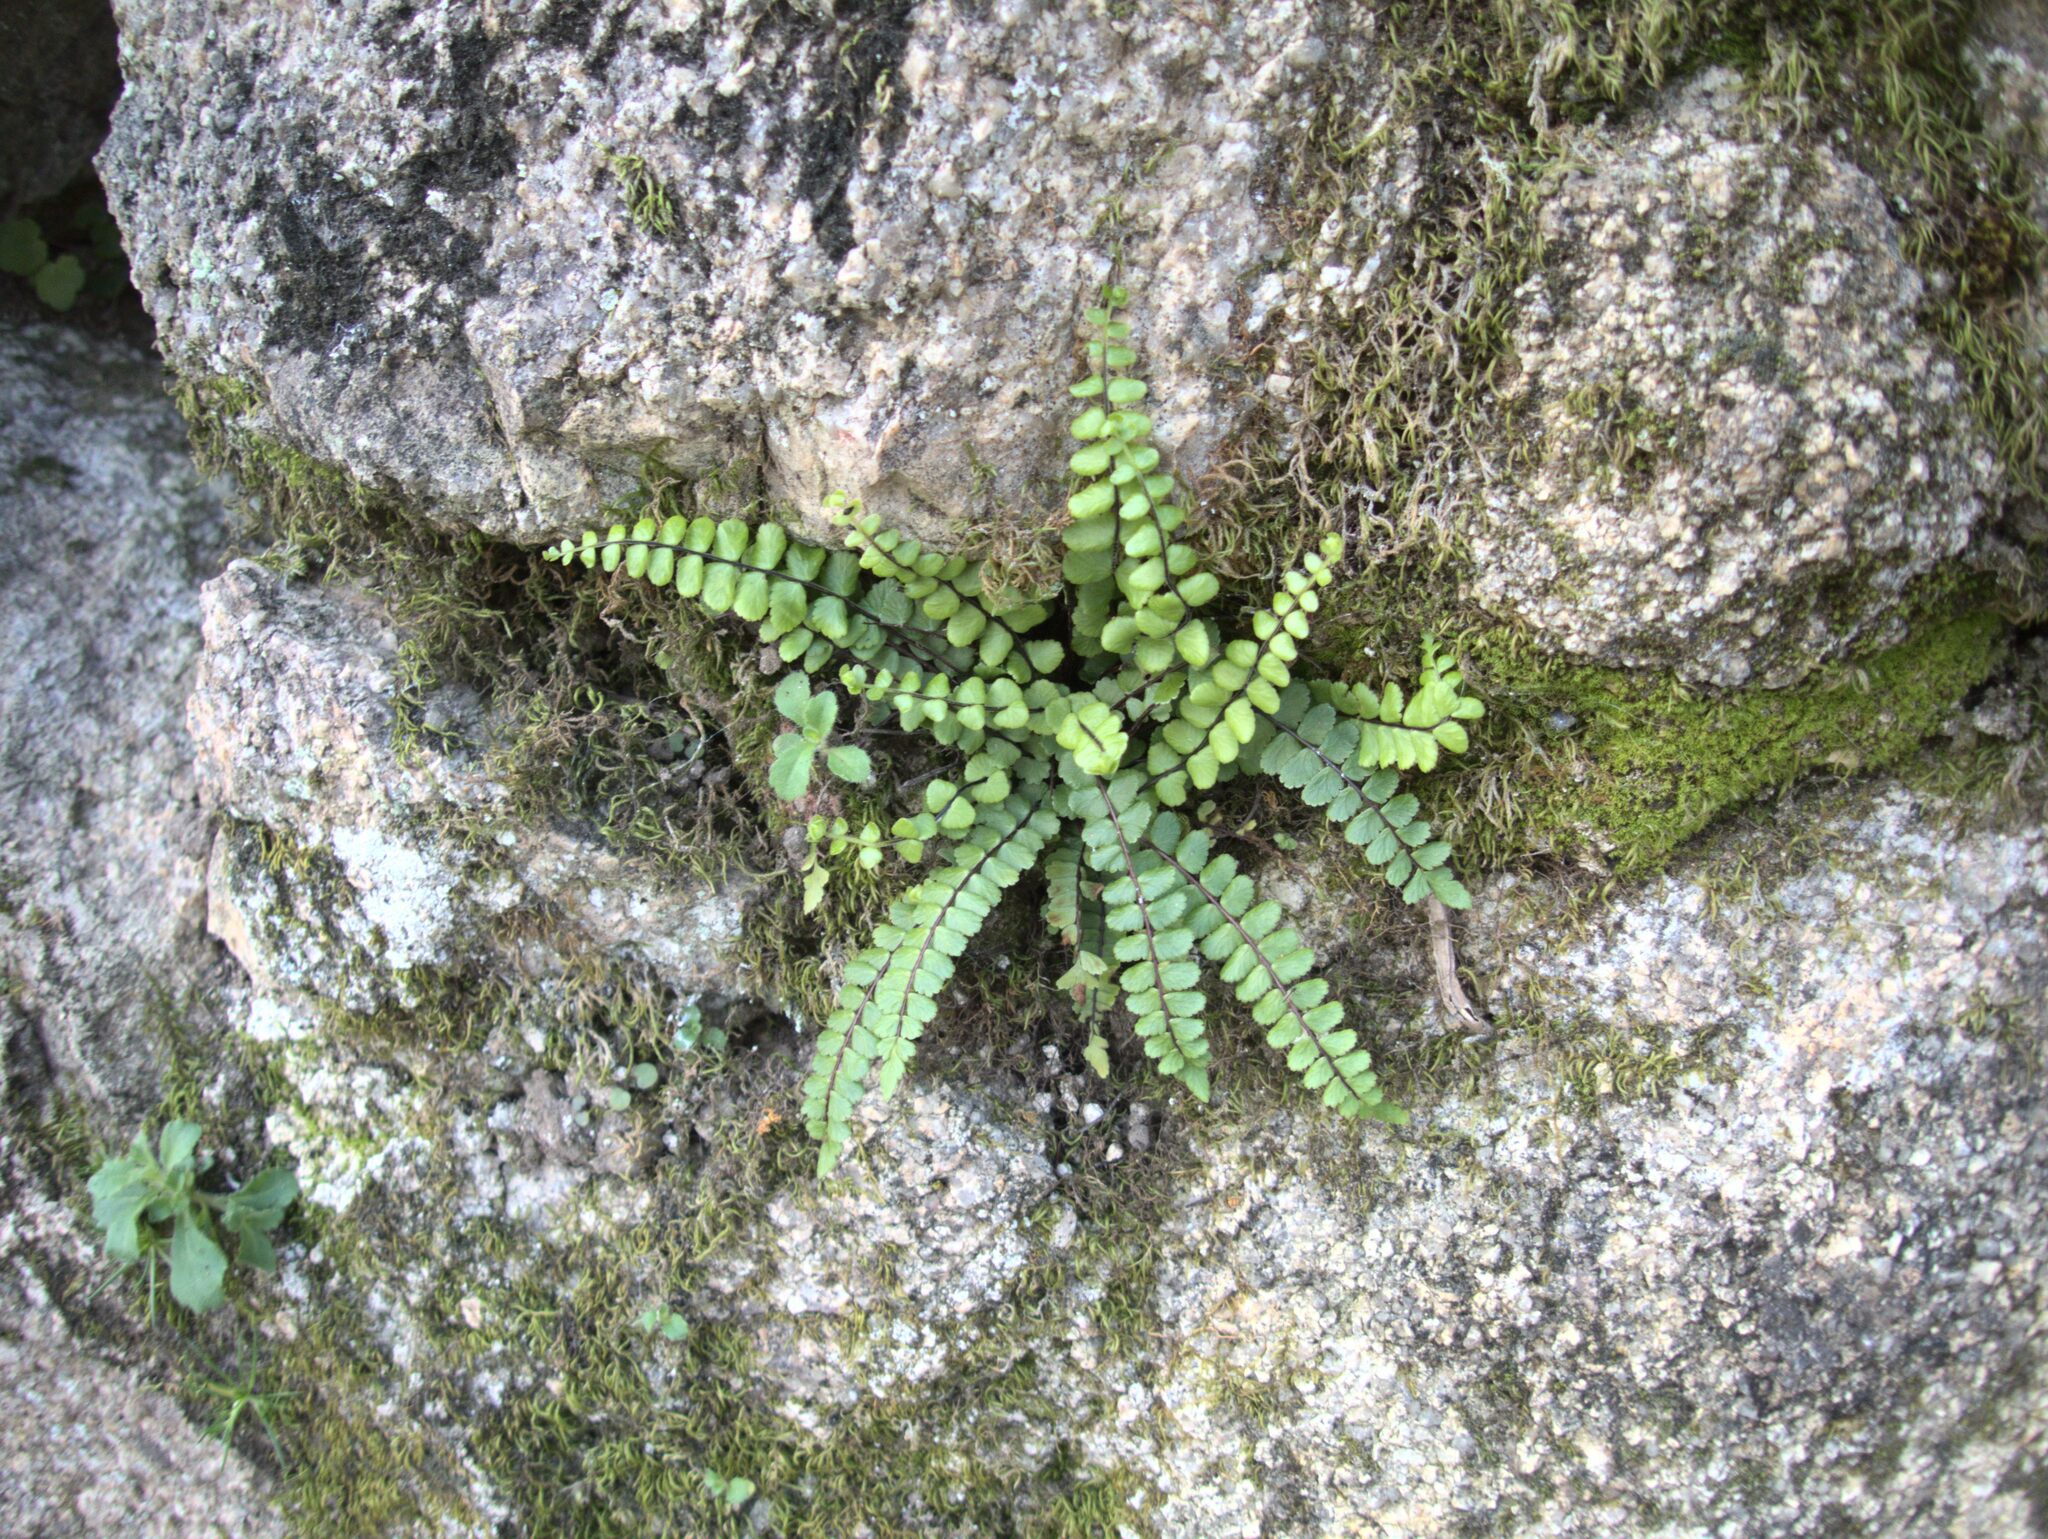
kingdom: Plantae
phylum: Tracheophyta
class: Polypodiopsida
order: Polypodiales
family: Aspleniaceae
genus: Asplenium
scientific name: Asplenium trichomanes
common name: Maidenhair spleenwort
